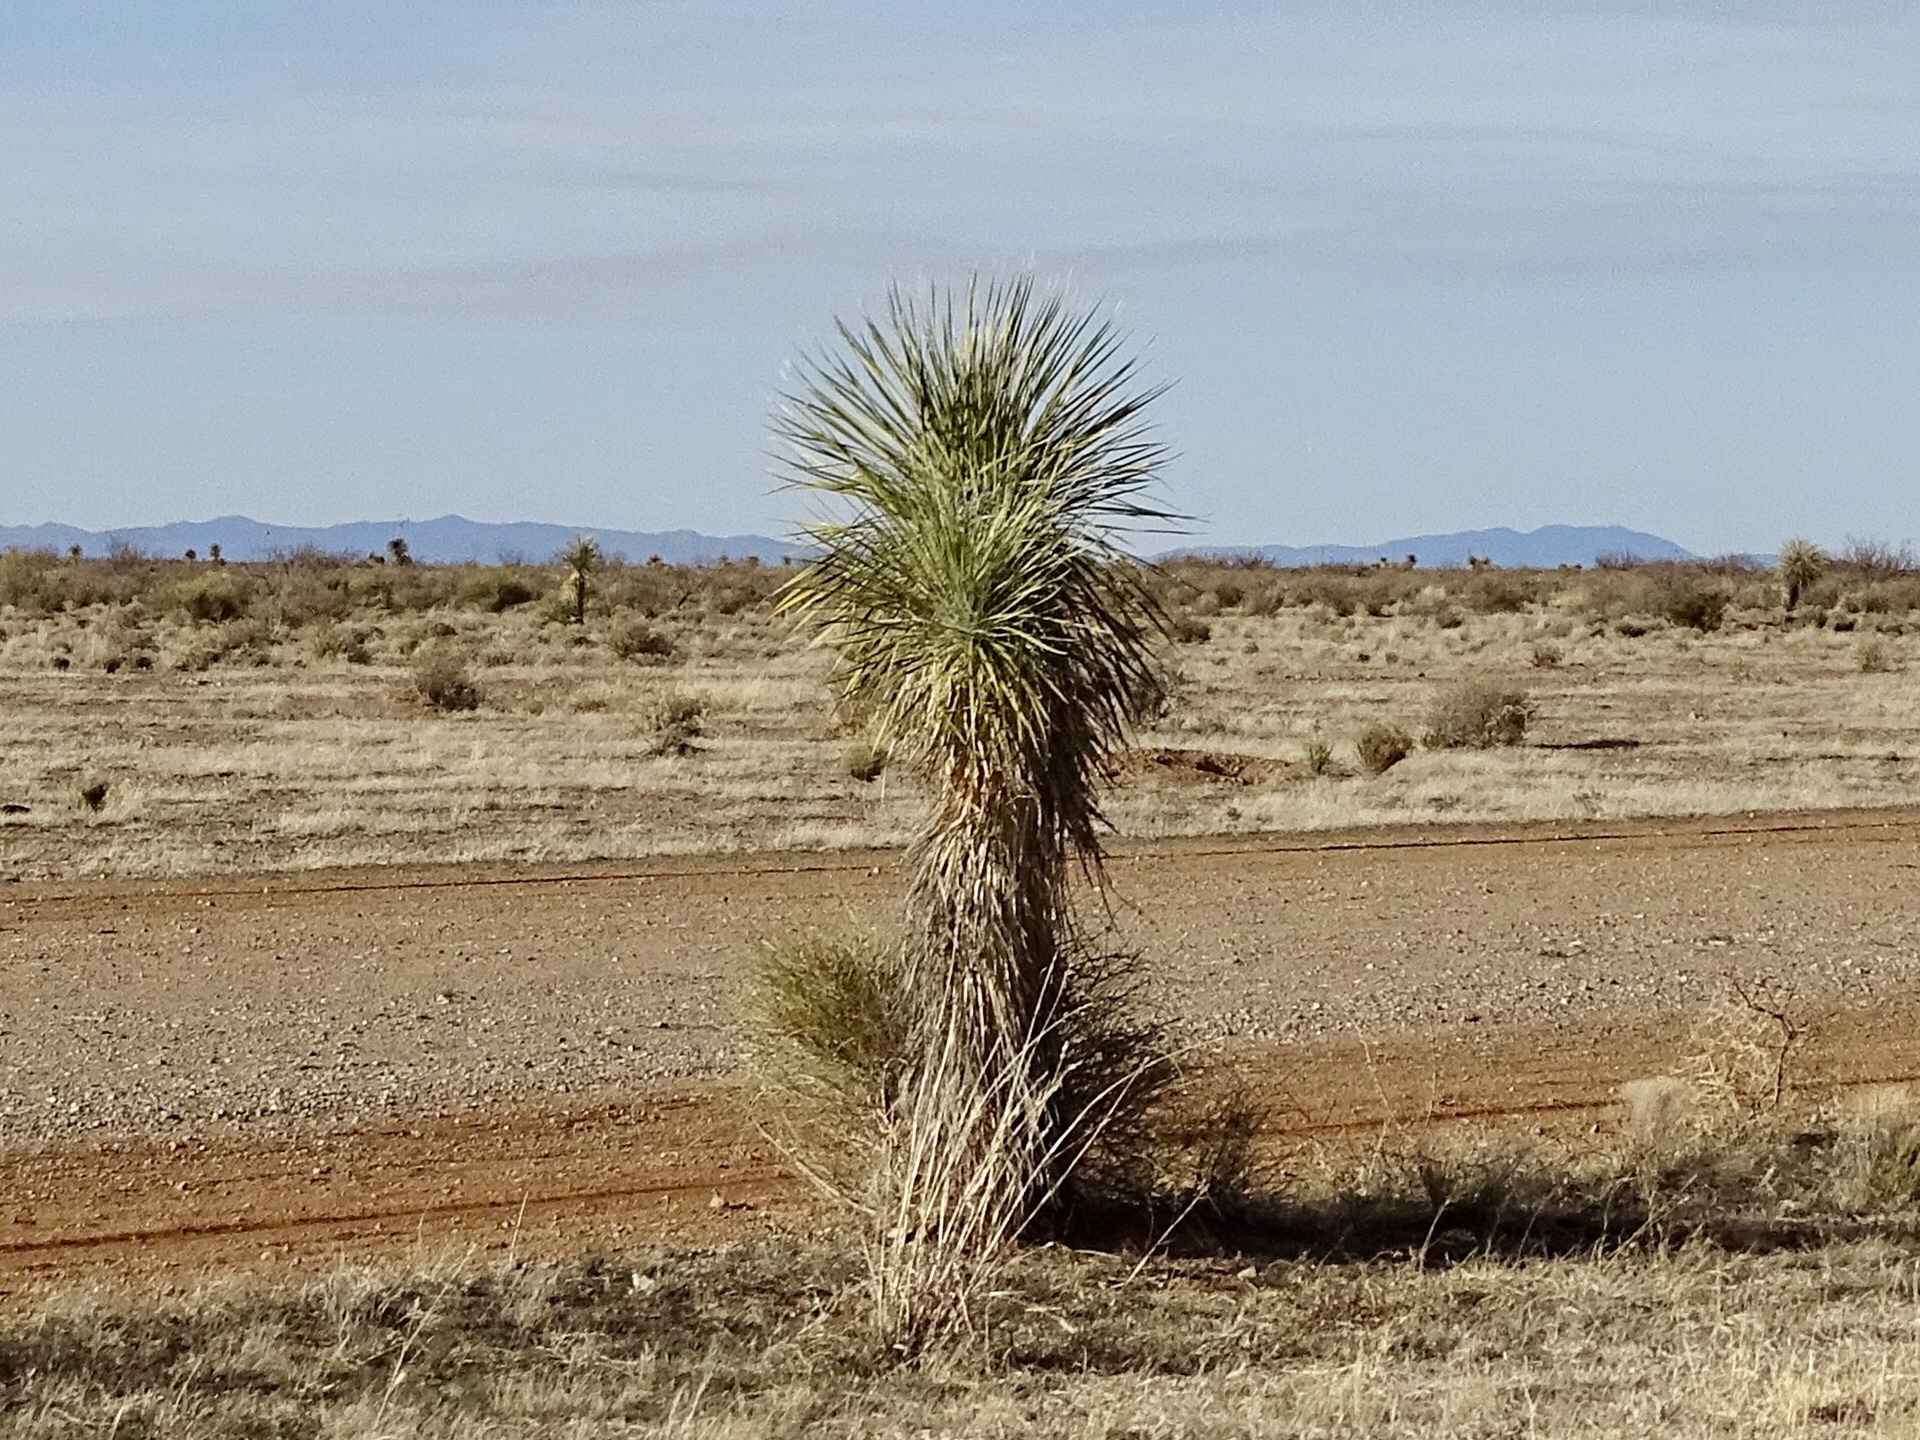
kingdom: Plantae
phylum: Tracheophyta
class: Liliopsida
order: Asparagales
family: Asparagaceae
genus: Yucca
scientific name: Yucca elata
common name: Palmella
